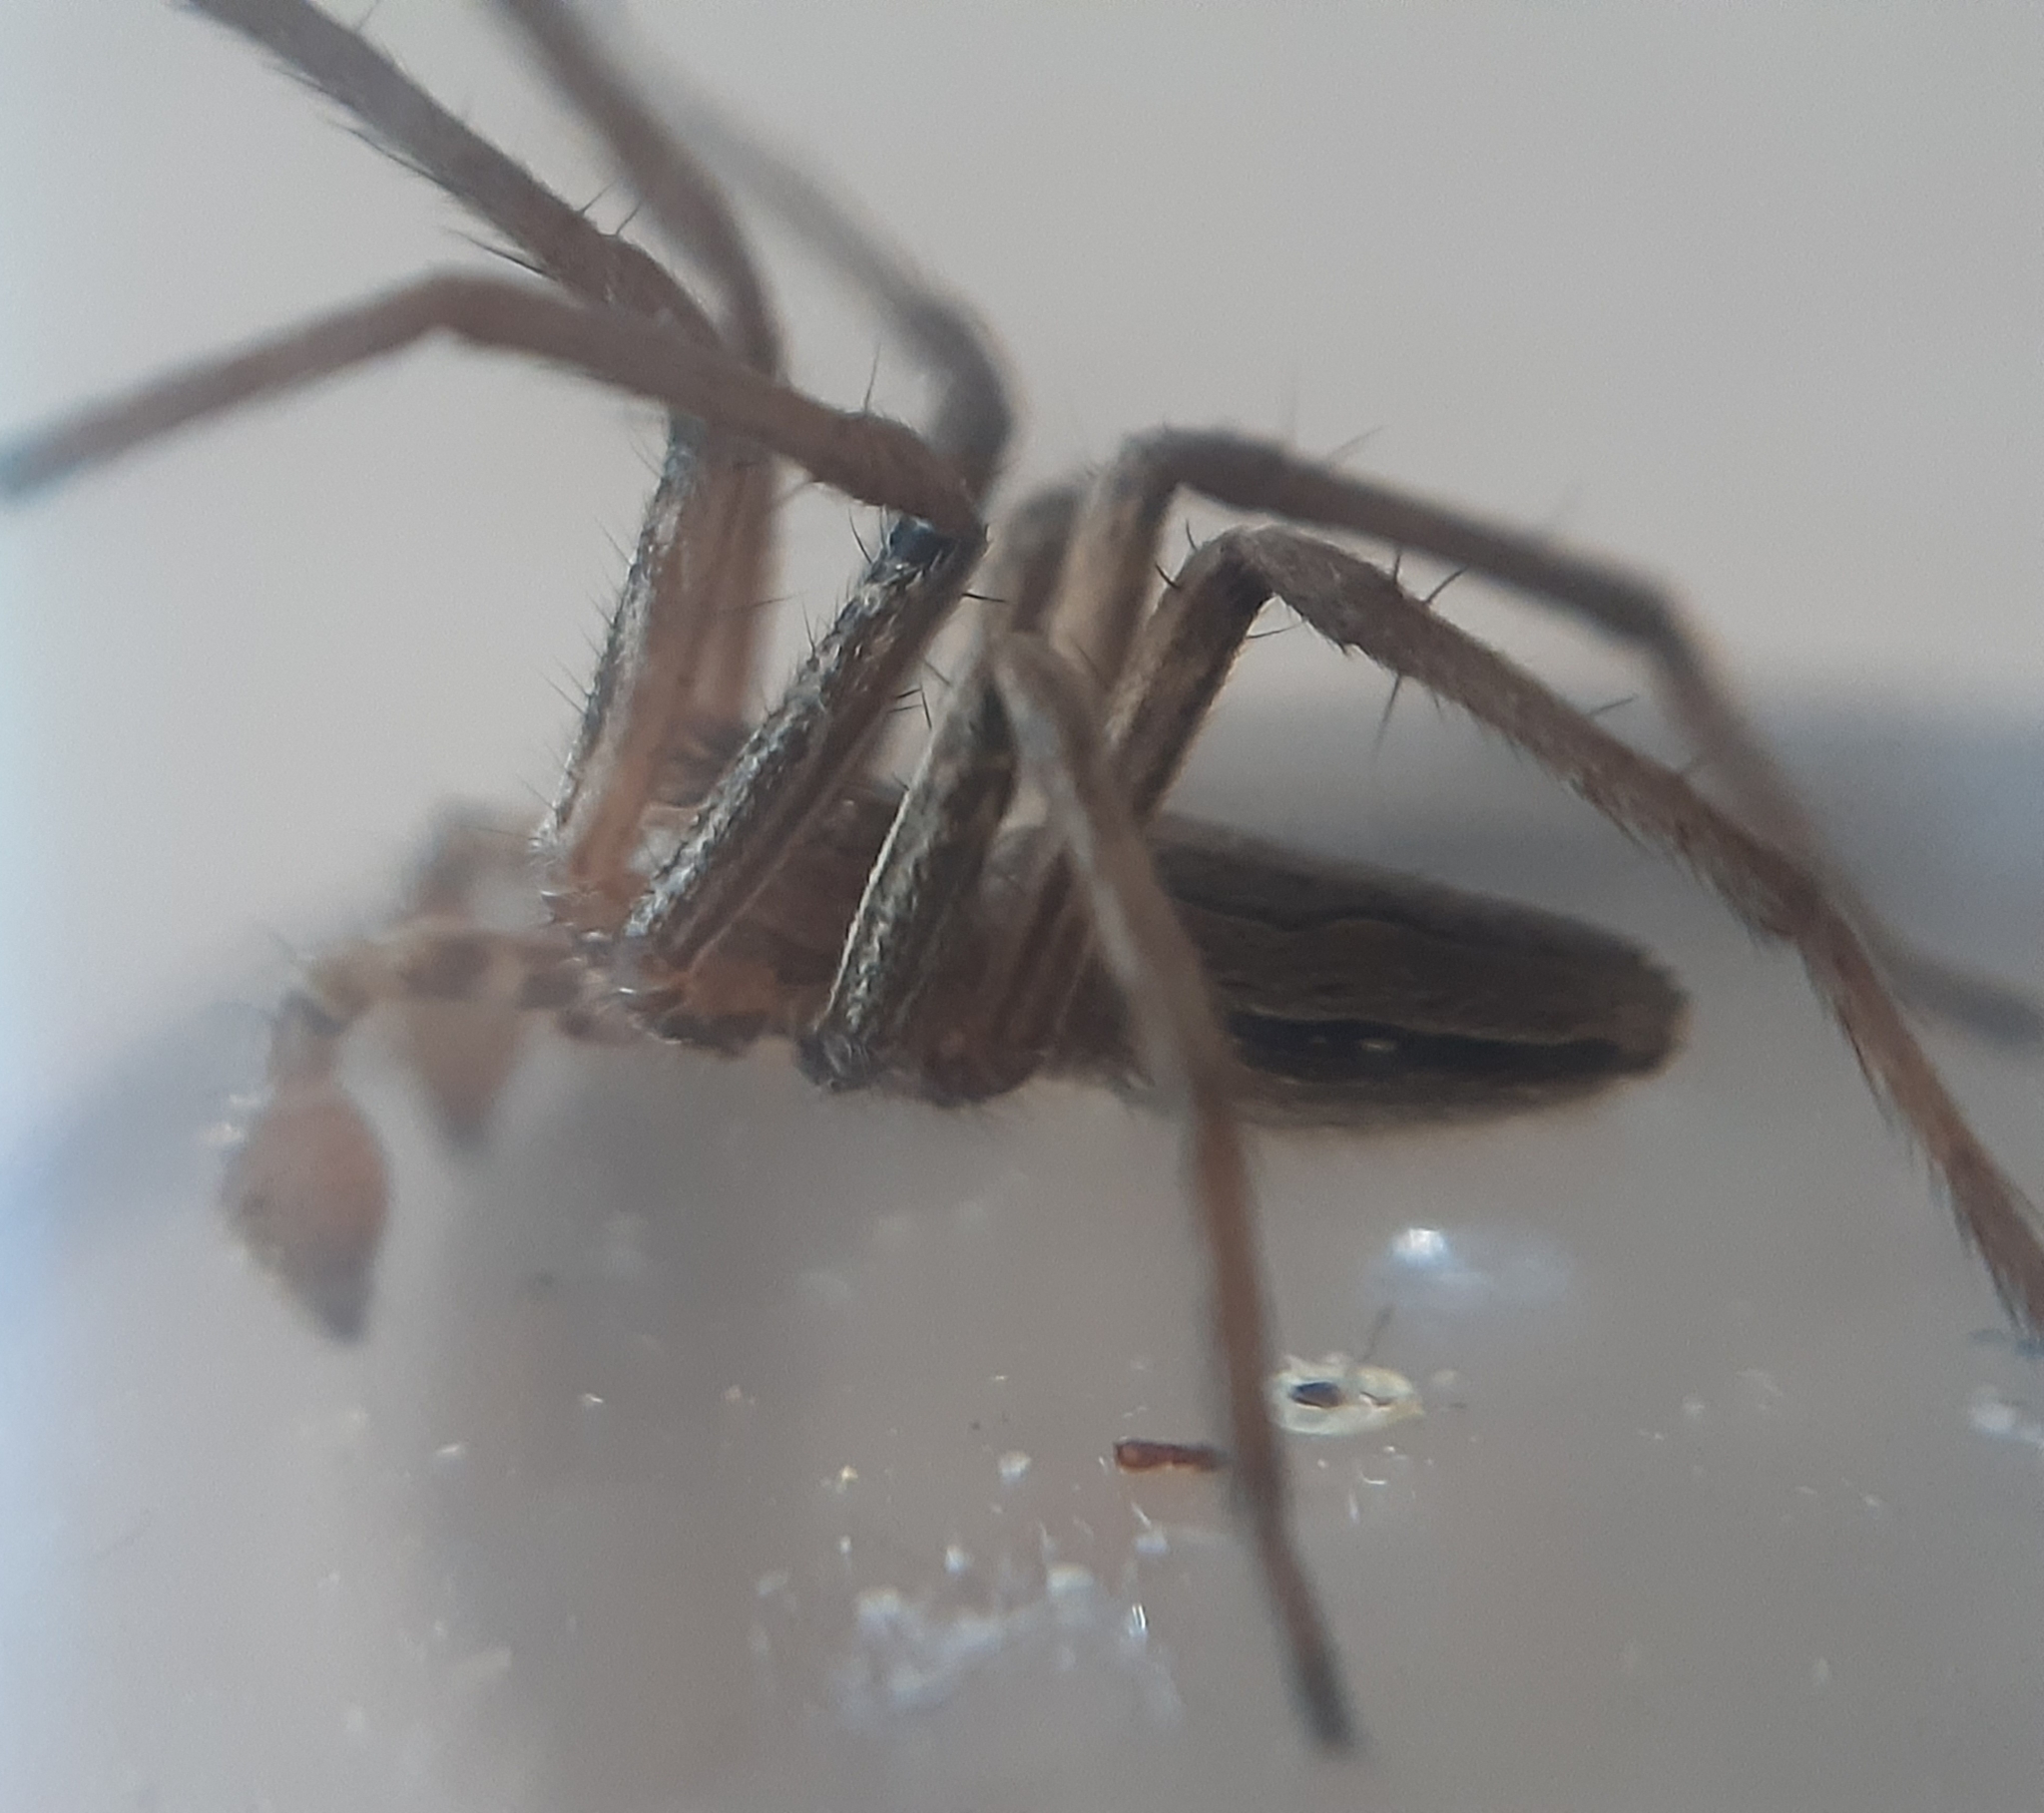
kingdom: Animalia
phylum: Arthropoda
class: Arachnida
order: Araneae
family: Pisauridae
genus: Pisaura
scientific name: Pisaura mirabilis
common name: Tent spider
